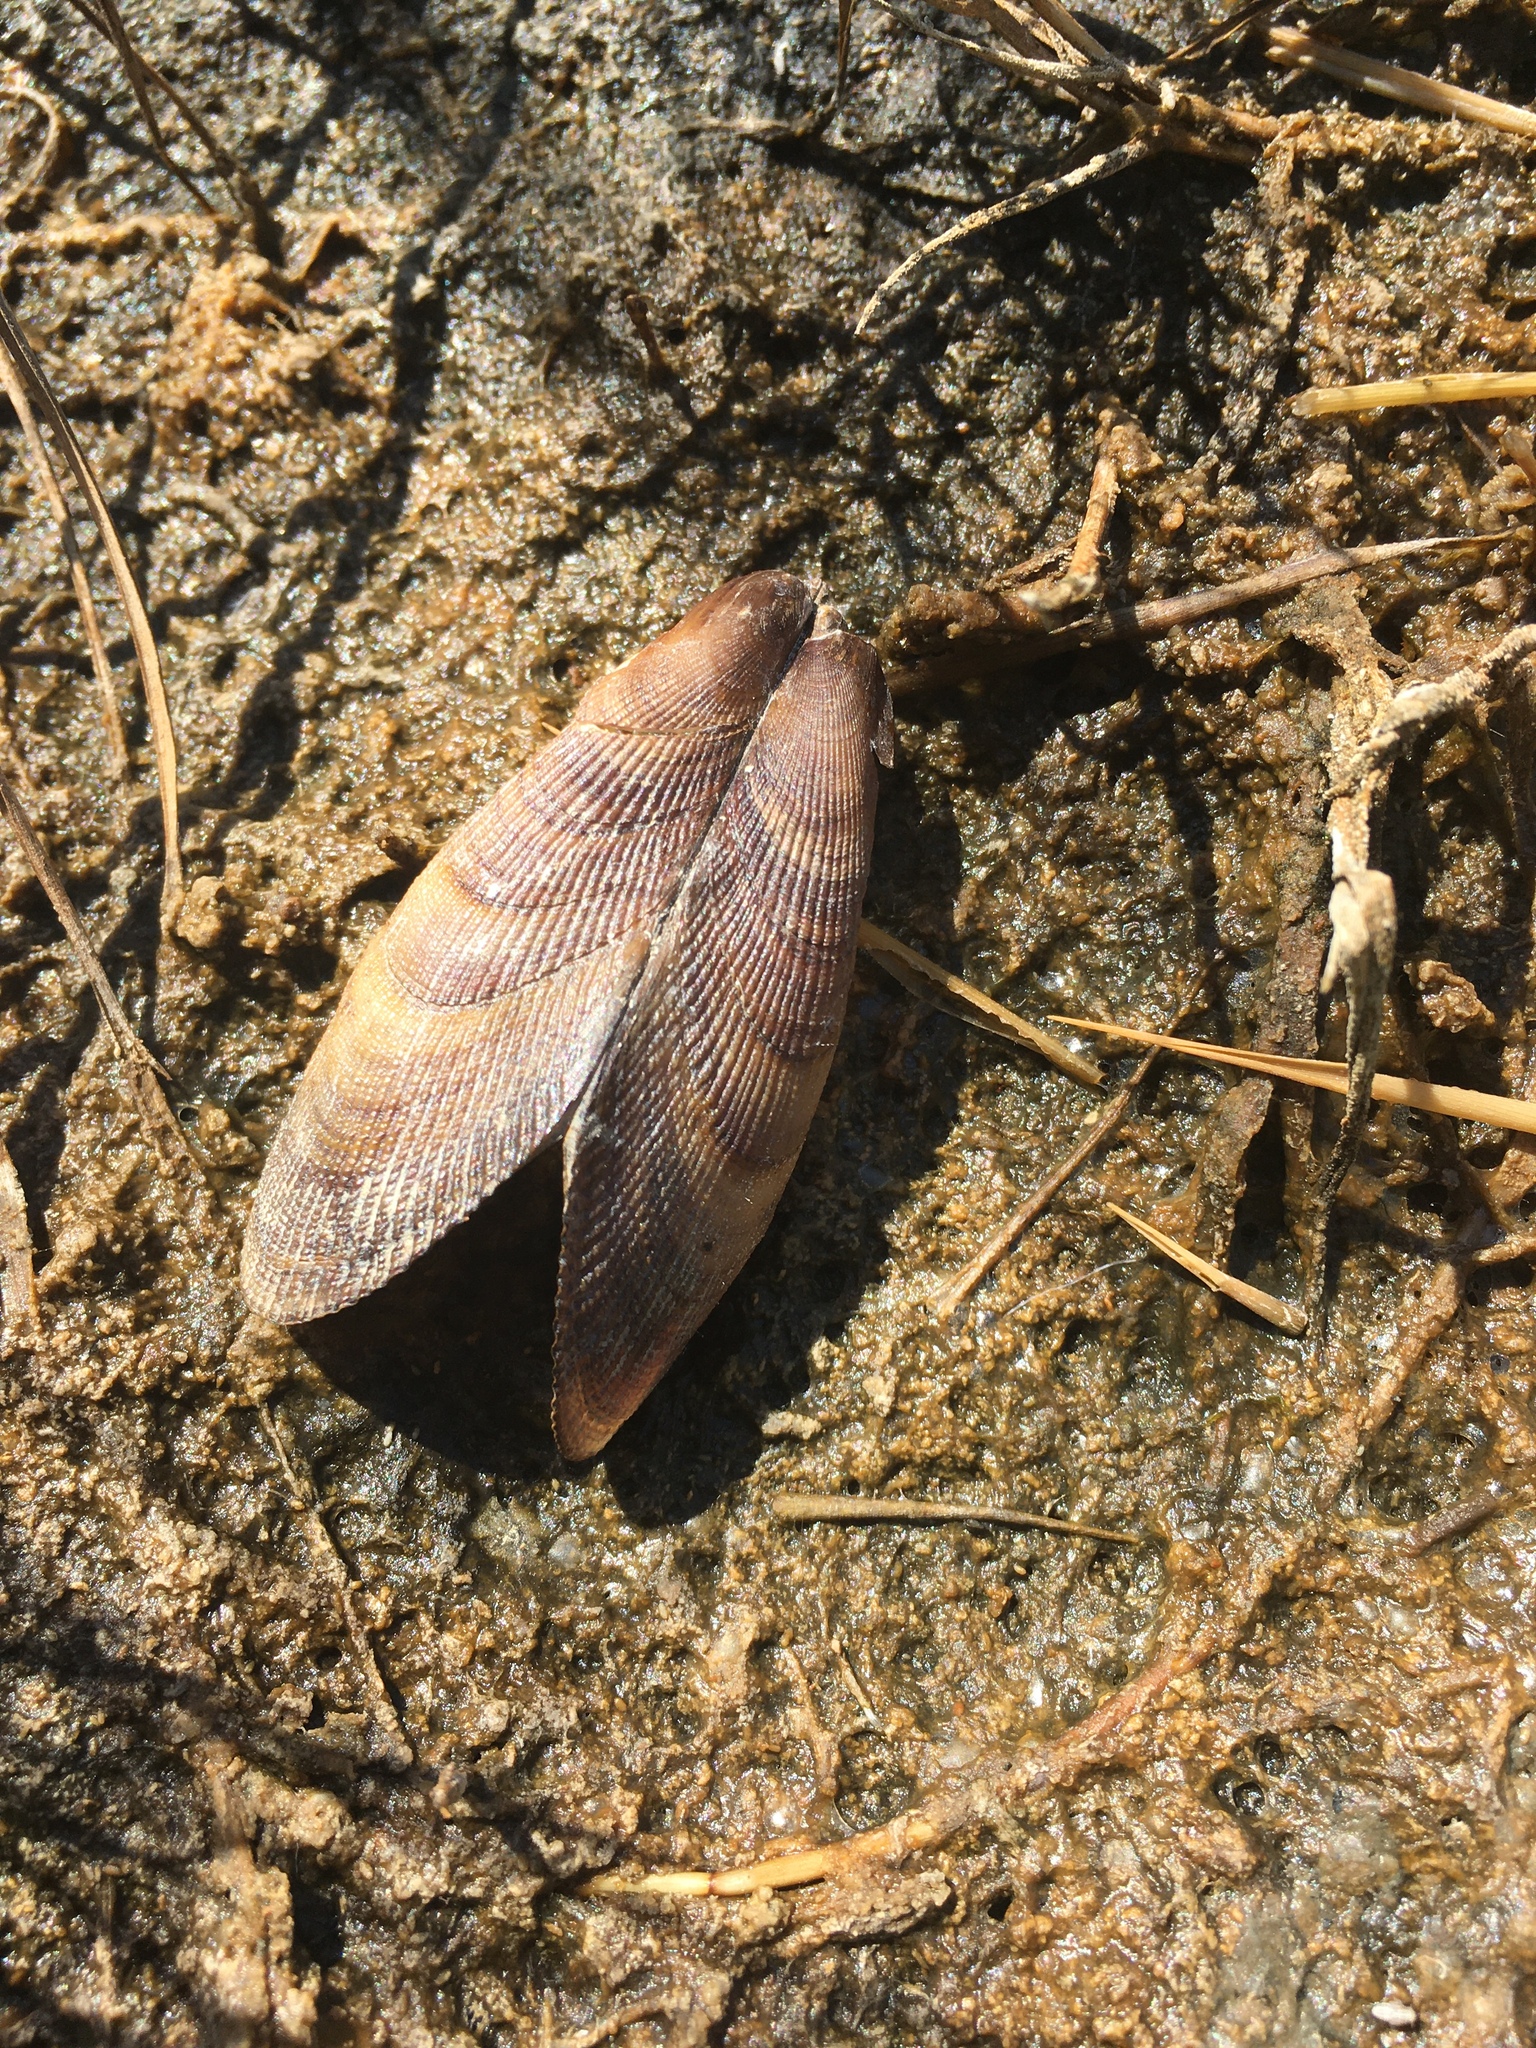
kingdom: Animalia
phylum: Mollusca
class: Bivalvia
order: Mytilida
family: Mytilidae
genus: Geukensia
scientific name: Geukensia granosissima
